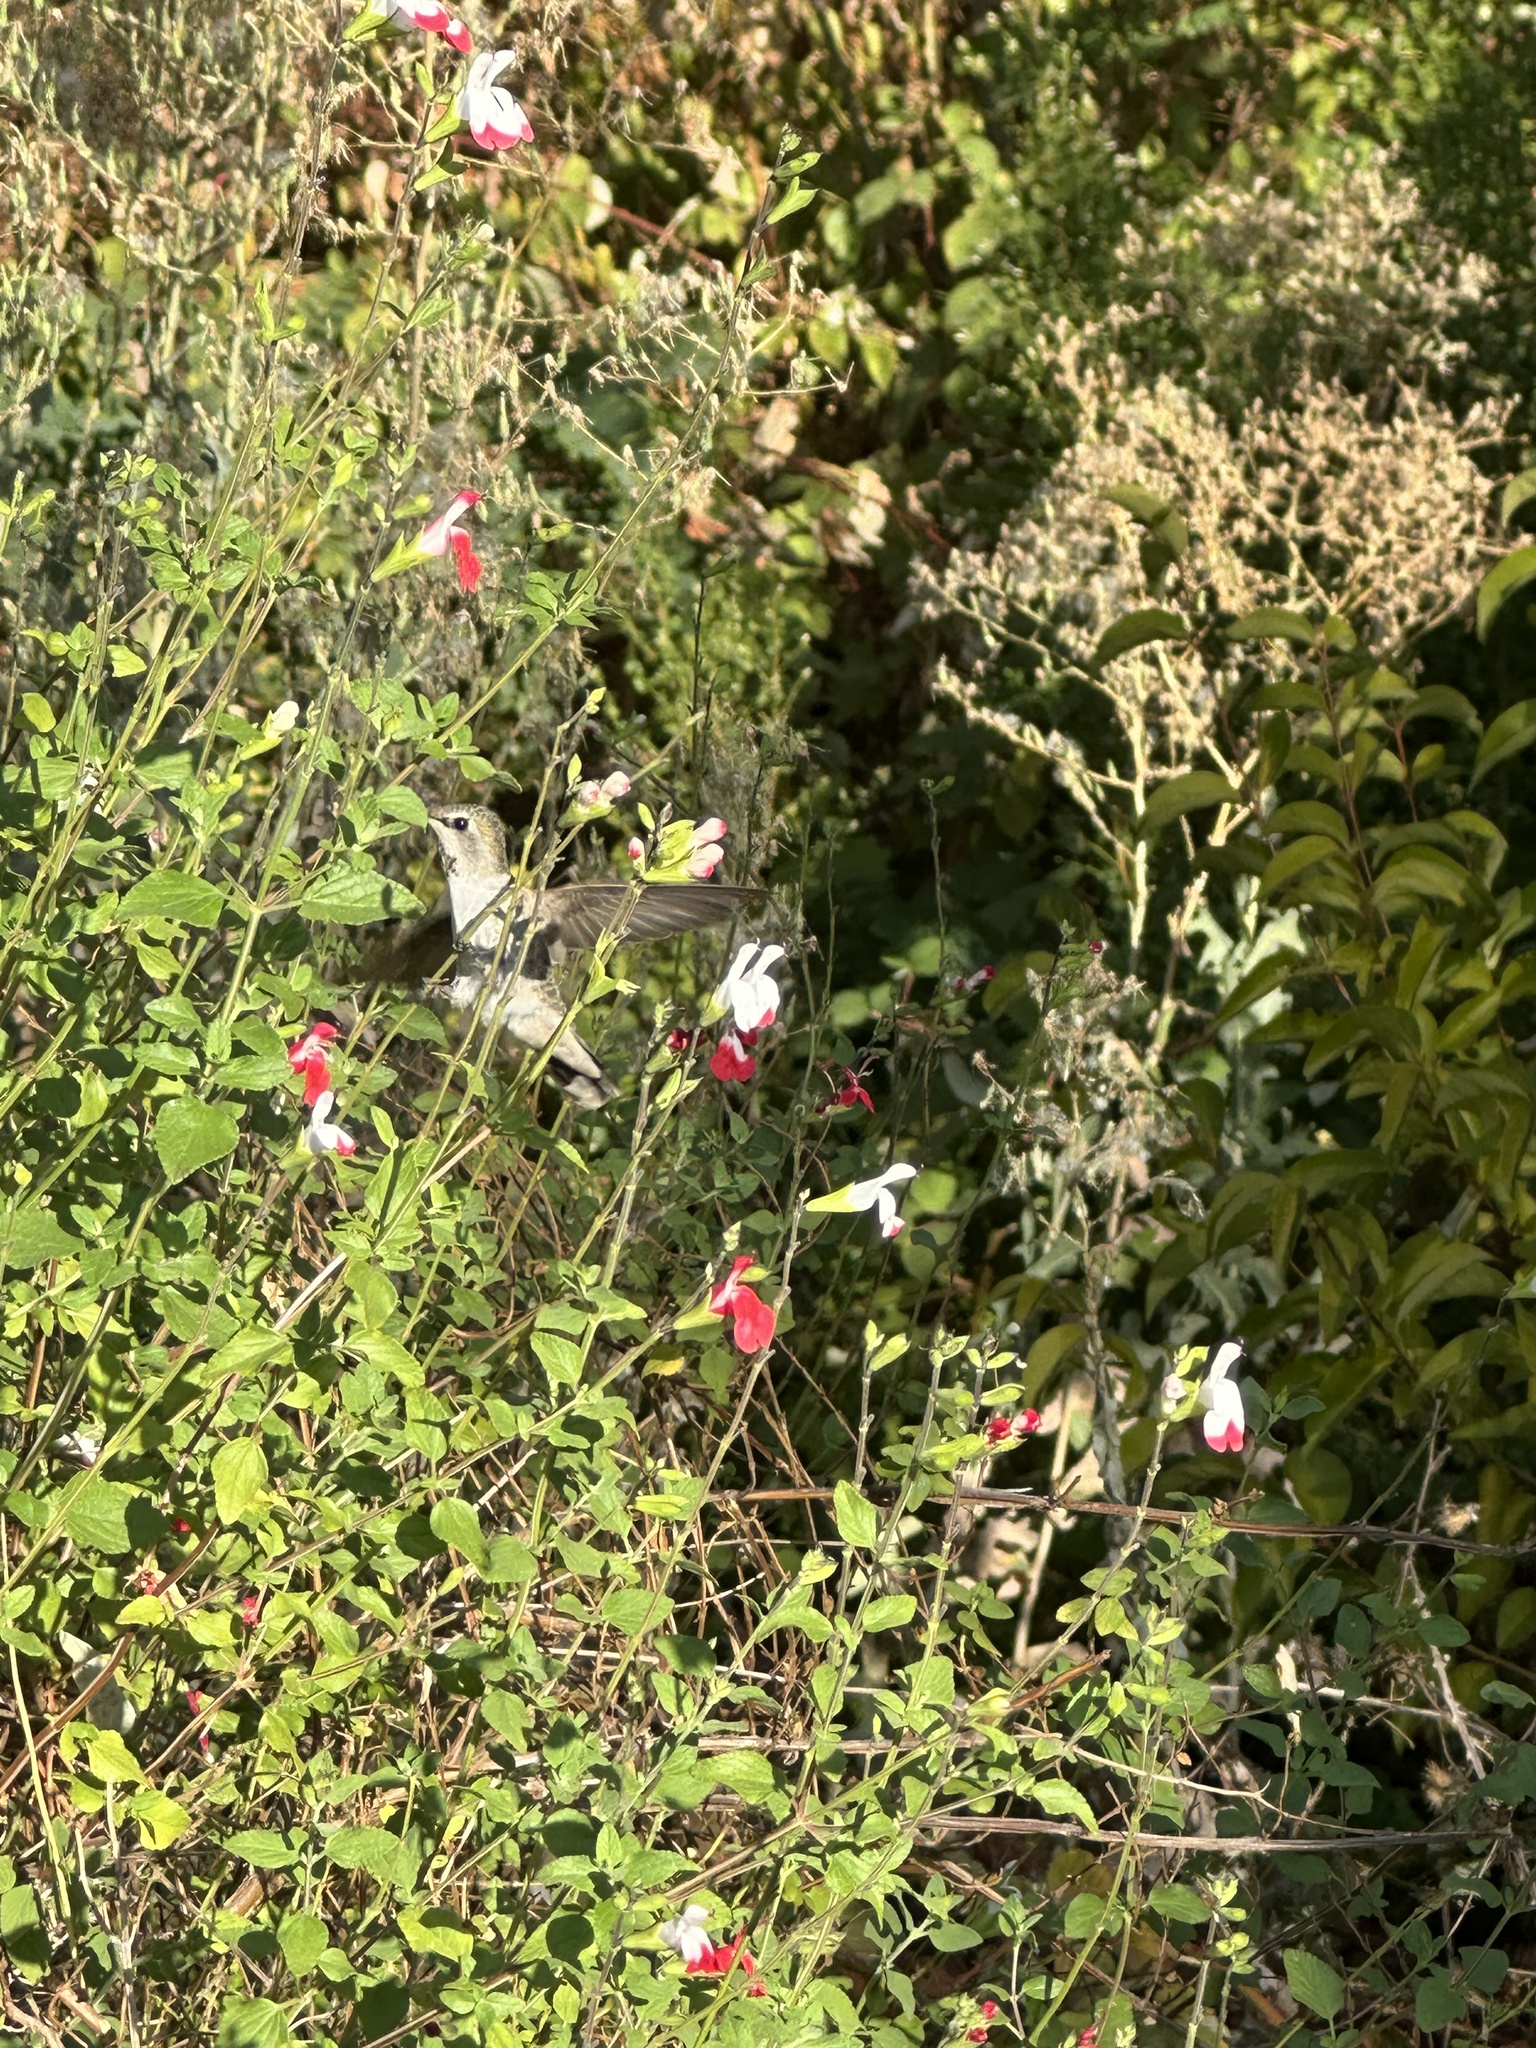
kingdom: Animalia
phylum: Chordata
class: Aves
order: Apodiformes
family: Trochilidae
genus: Calypte
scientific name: Calypte anna
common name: Anna's hummingbird
